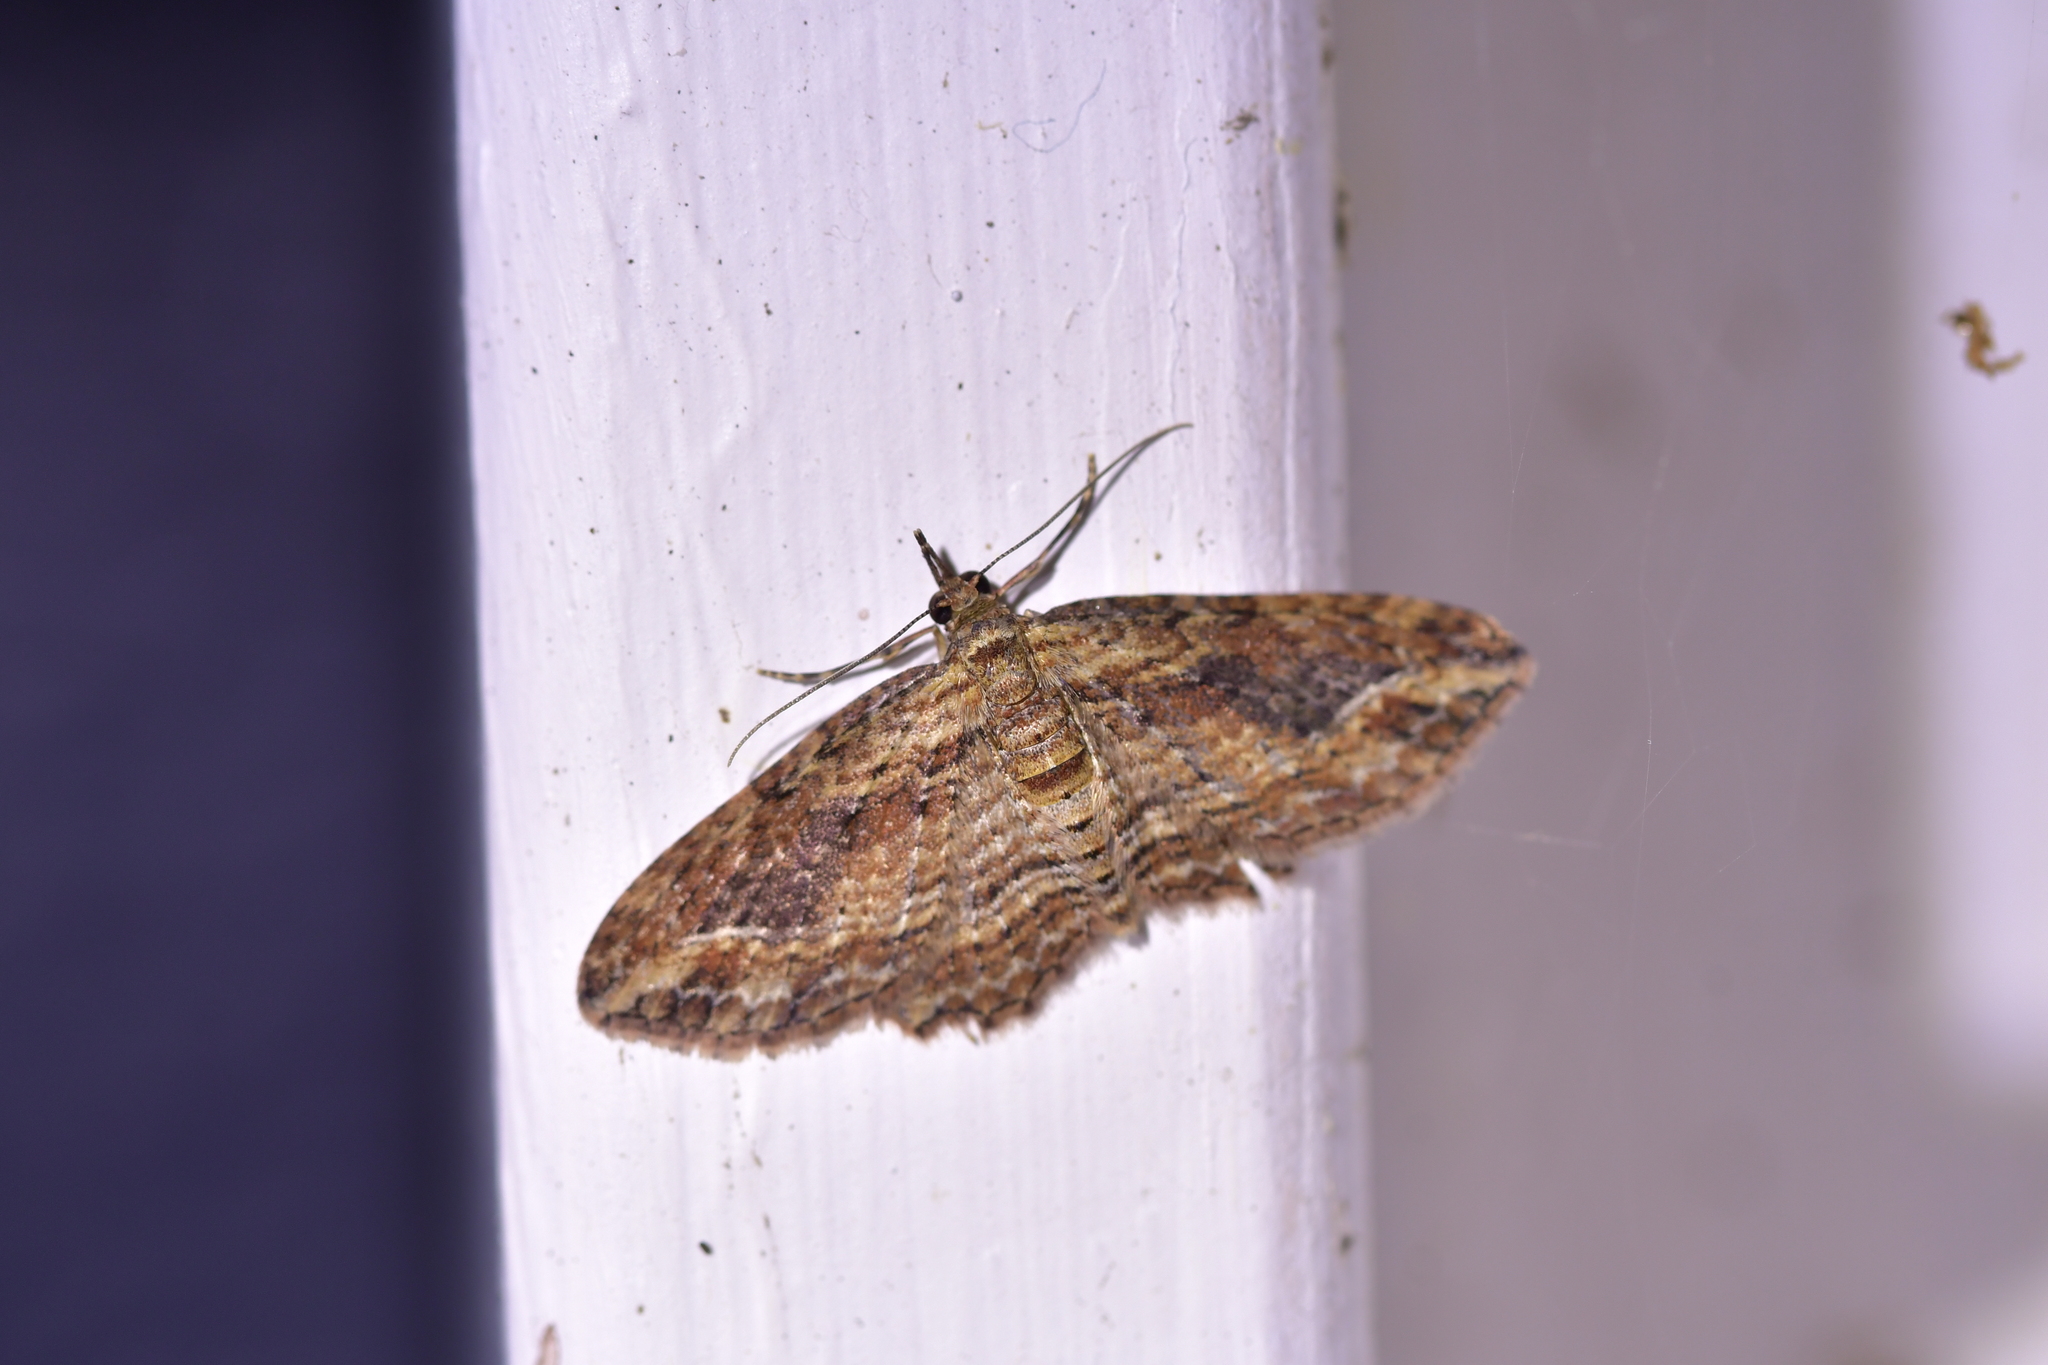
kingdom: Animalia
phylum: Arthropoda
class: Insecta
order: Lepidoptera
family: Geometridae
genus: Chloroclystis
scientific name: Chloroclystis filata
